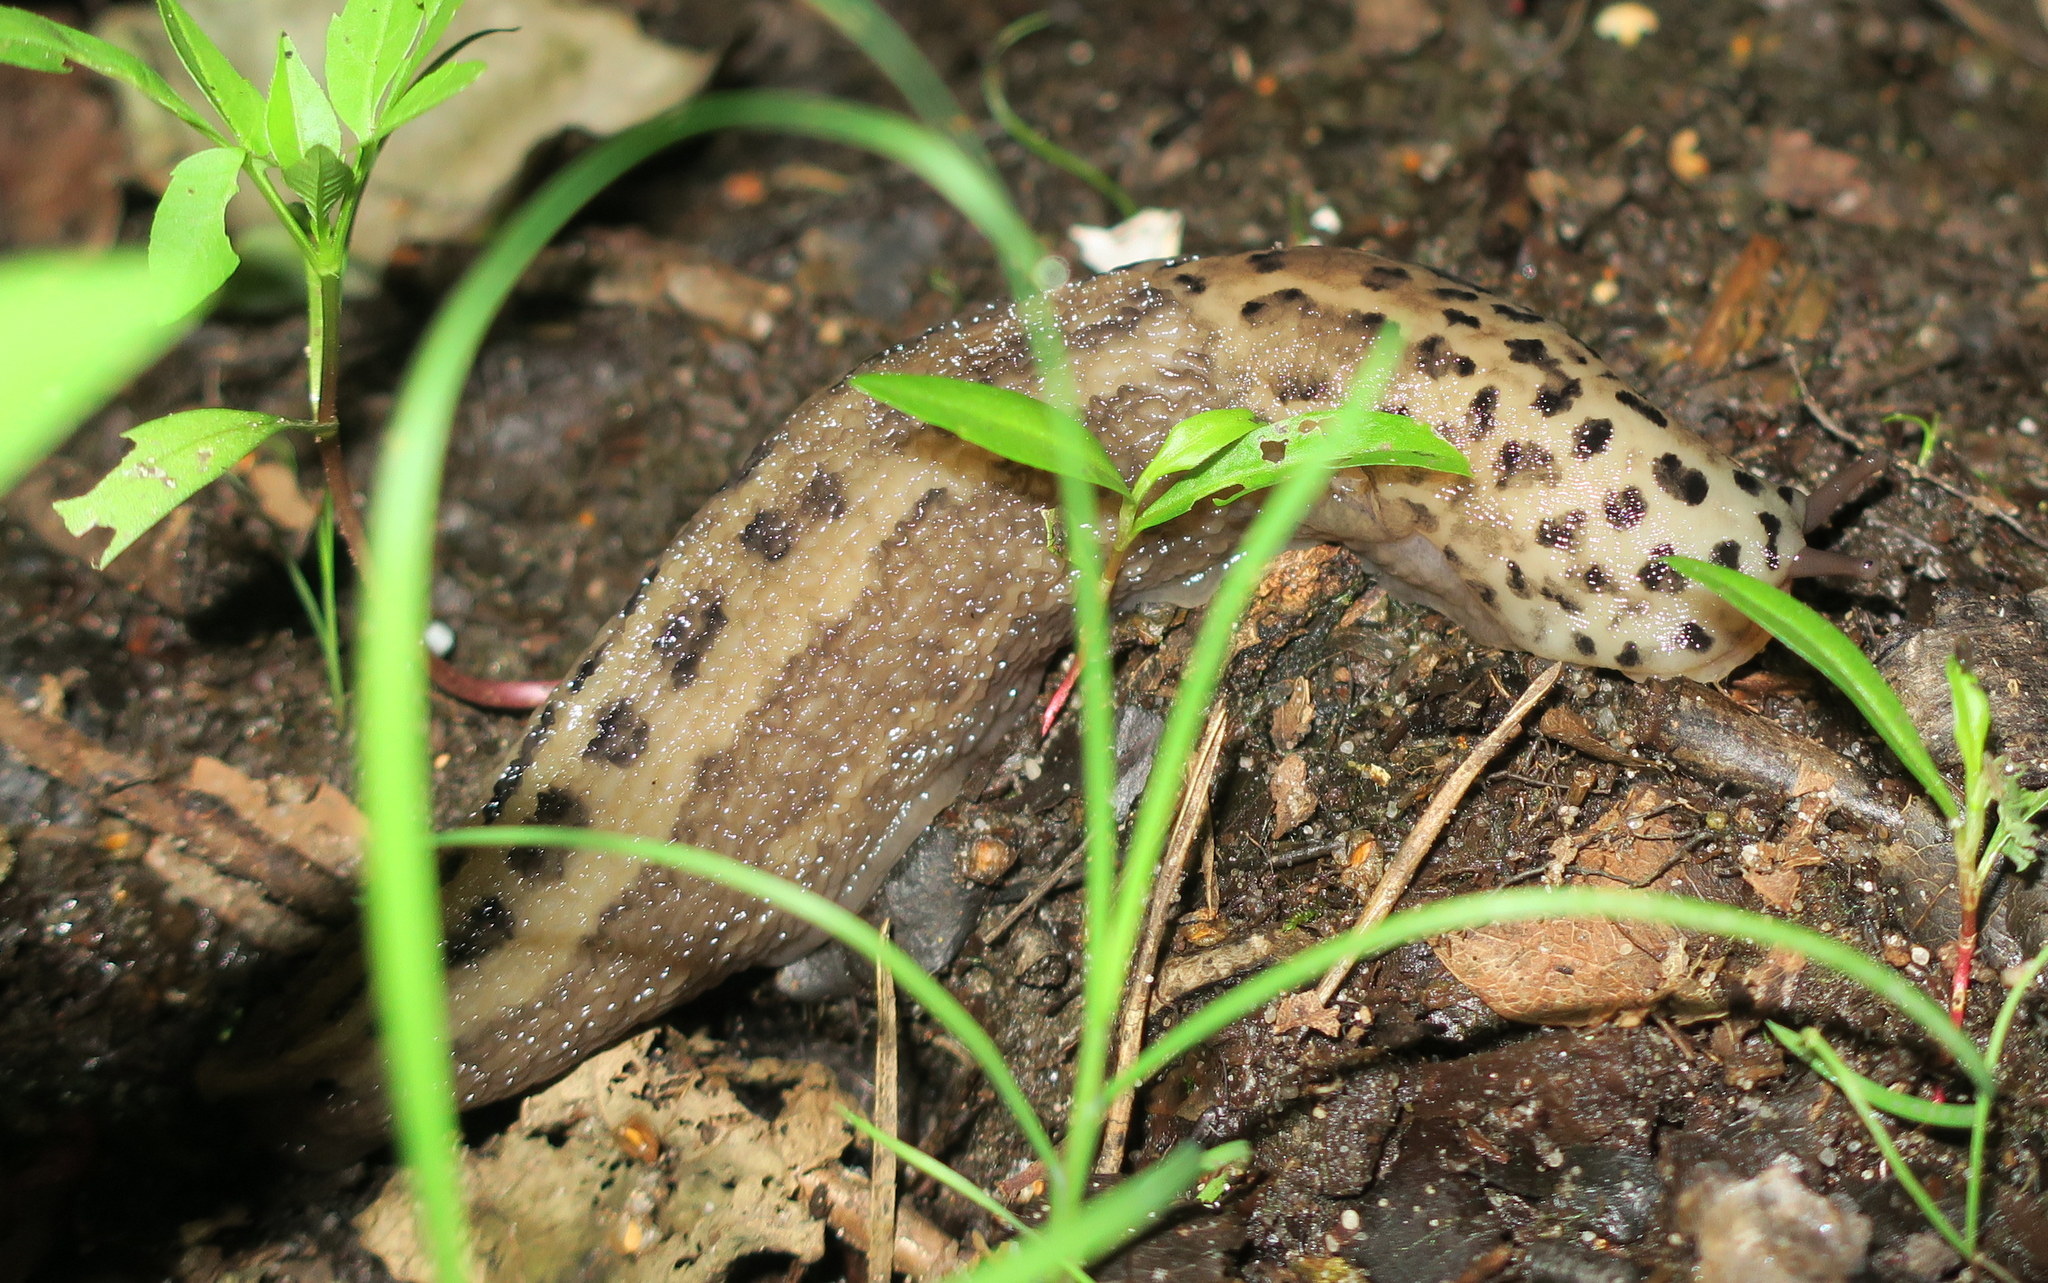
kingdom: Animalia
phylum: Mollusca
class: Gastropoda
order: Stylommatophora
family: Limacidae
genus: Limax
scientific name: Limax maximus
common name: Great grey slug
